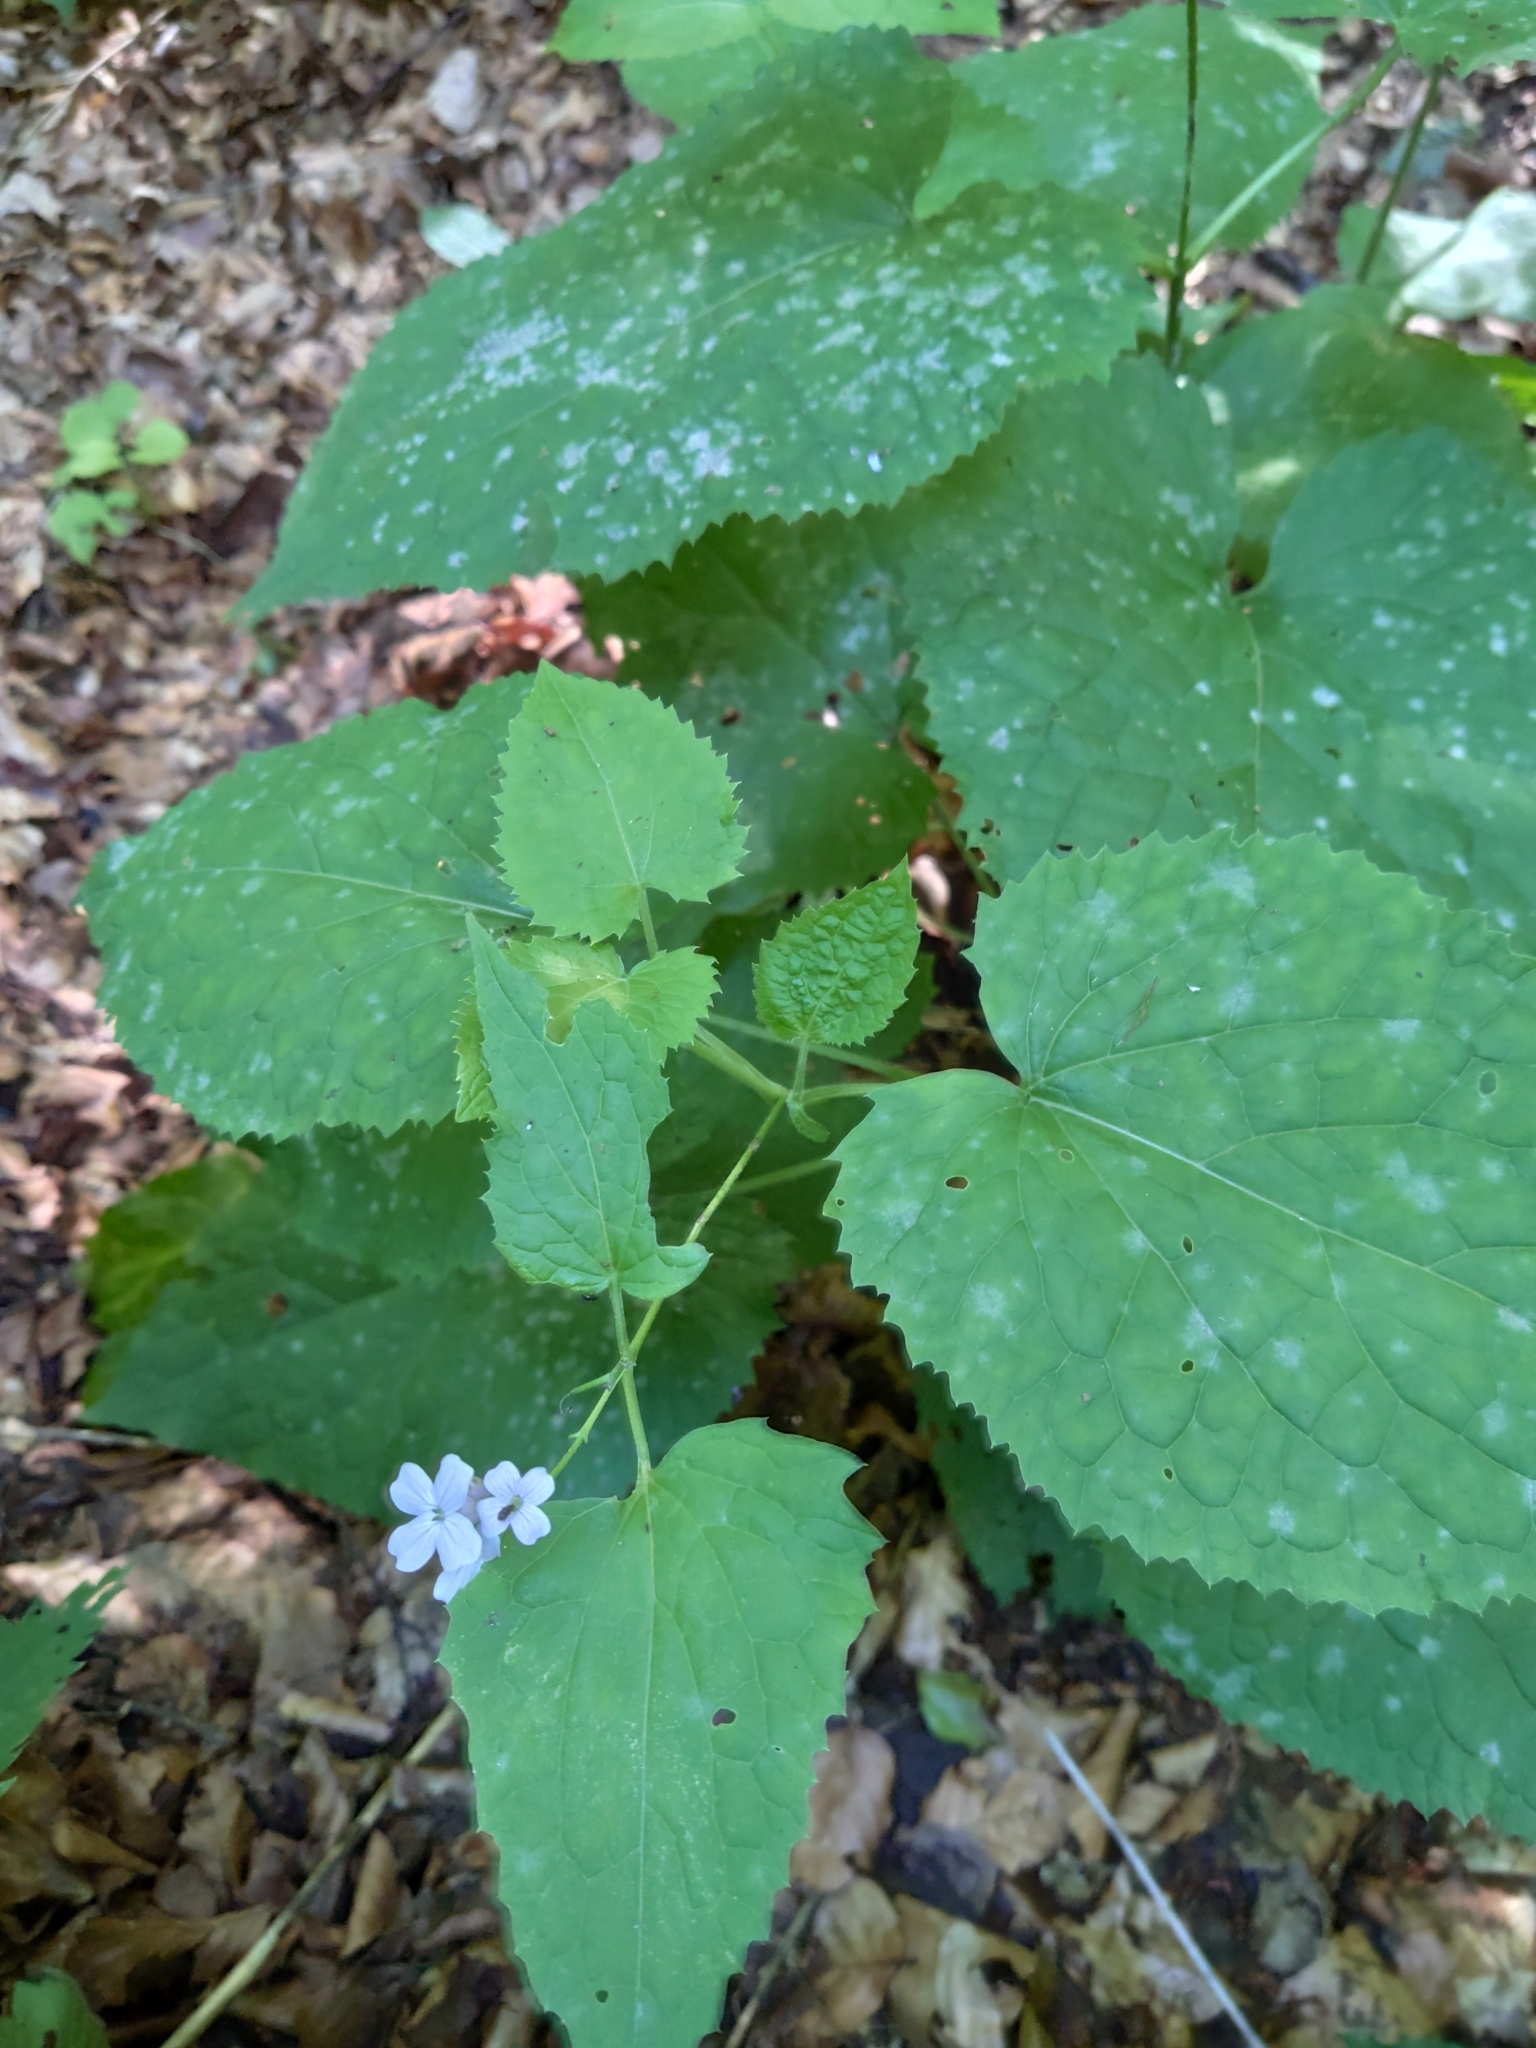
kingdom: Plantae
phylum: Tracheophyta
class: Magnoliopsida
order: Brassicales
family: Brassicaceae
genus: Lunaria
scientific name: Lunaria rediviva
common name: Perennial honesty
